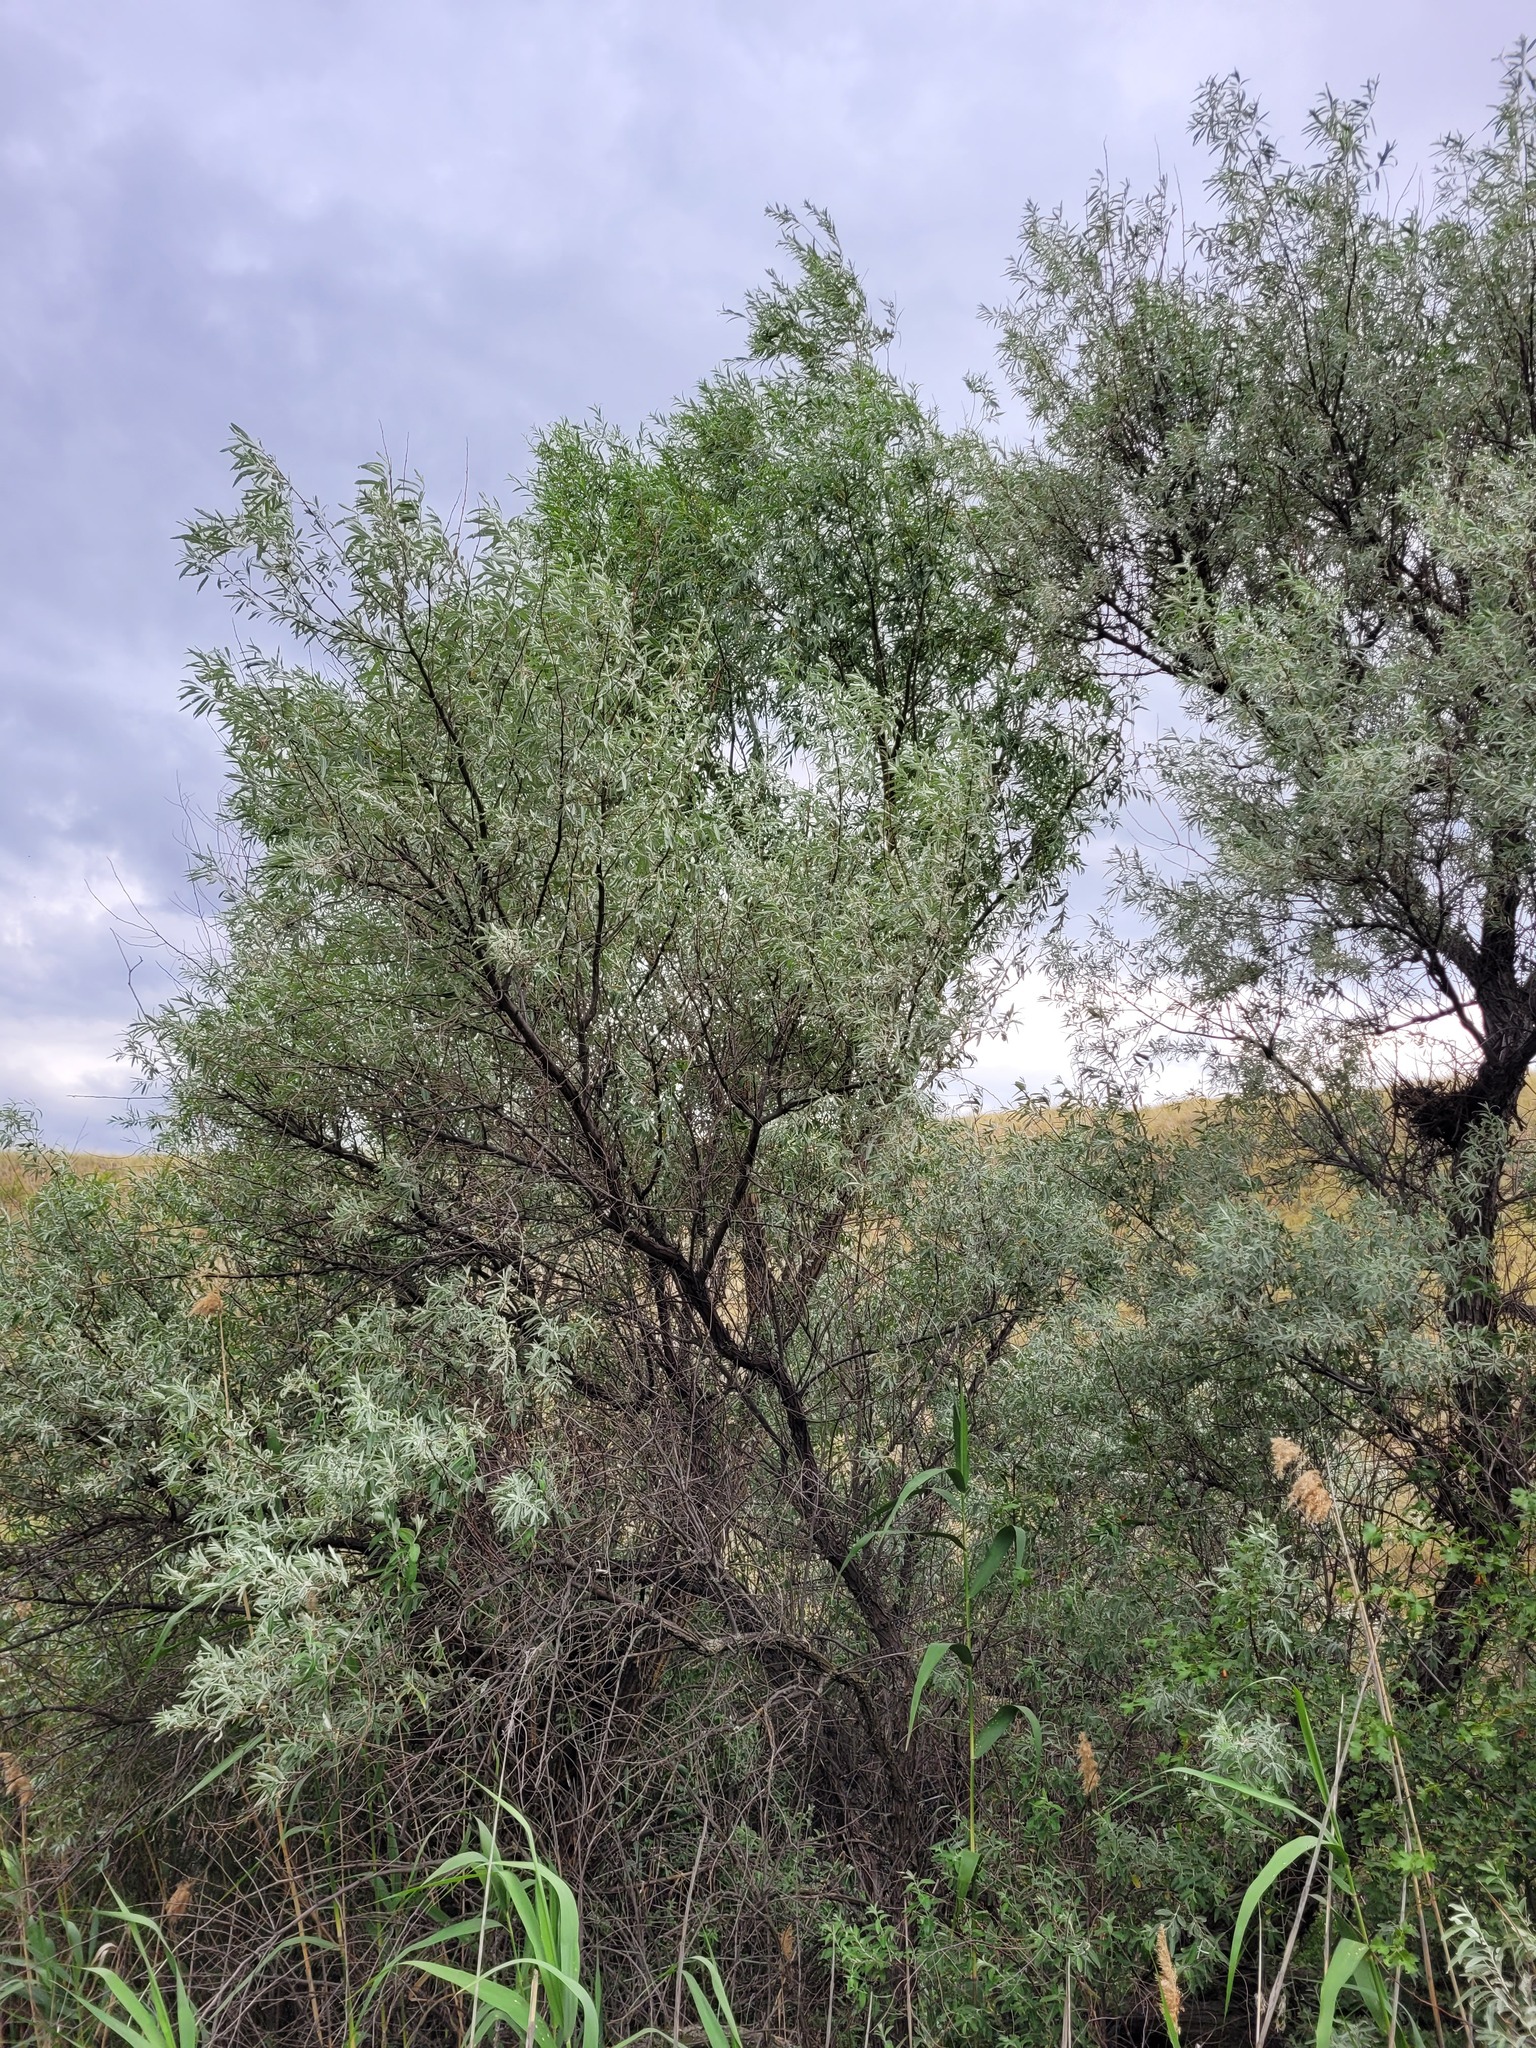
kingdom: Plantae
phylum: Tracheophyta
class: Magnoliopsida
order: Rosales
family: Elaeagnaceae
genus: Elaeagnus
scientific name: Elaeagnus angustifolia
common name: Russian olive
